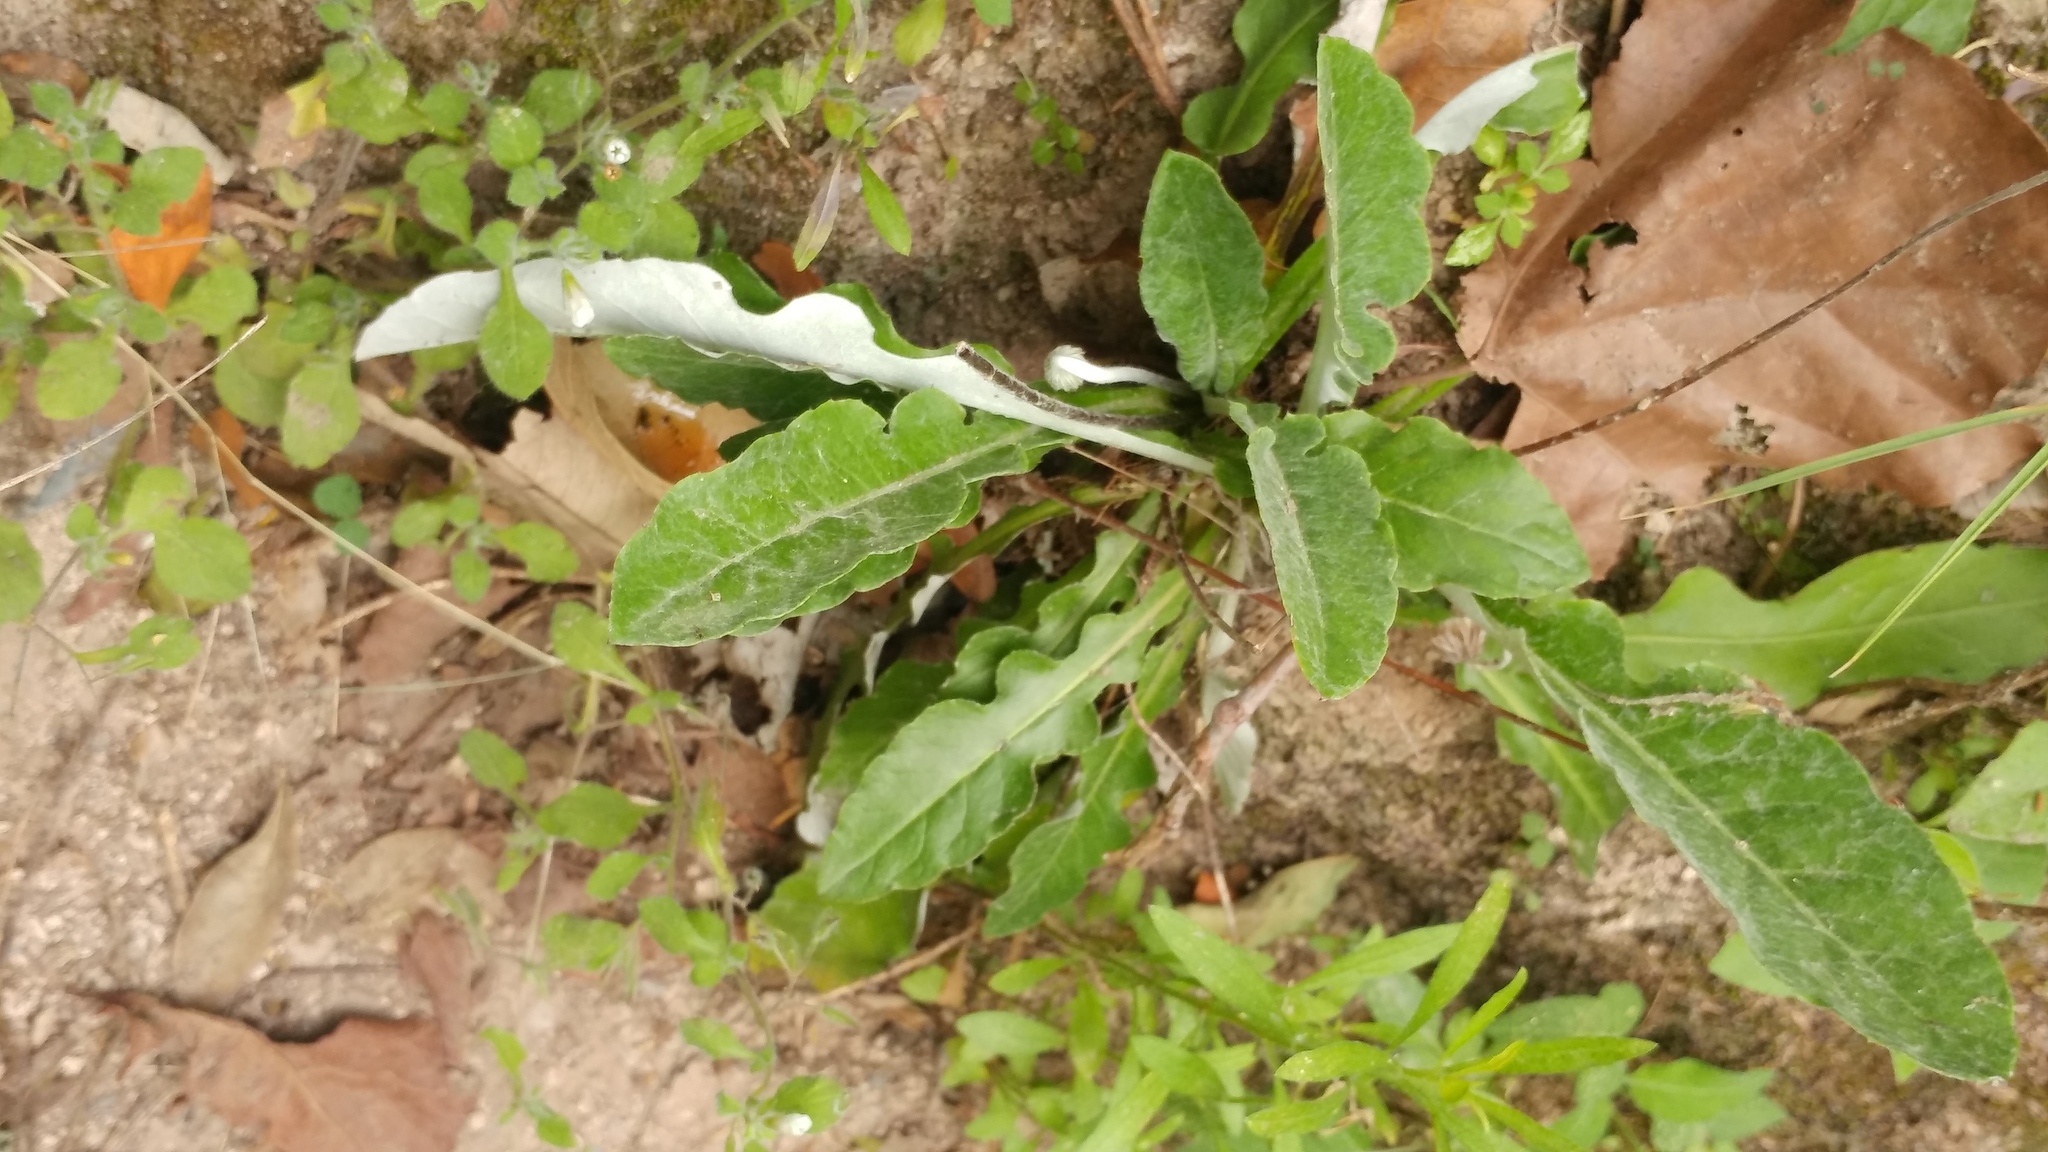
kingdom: Plantae
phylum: Tracheophyta
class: Magnoliopsida
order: Asterales
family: Asteraceae
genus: Chaptalia
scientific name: Chaptalia nutans
